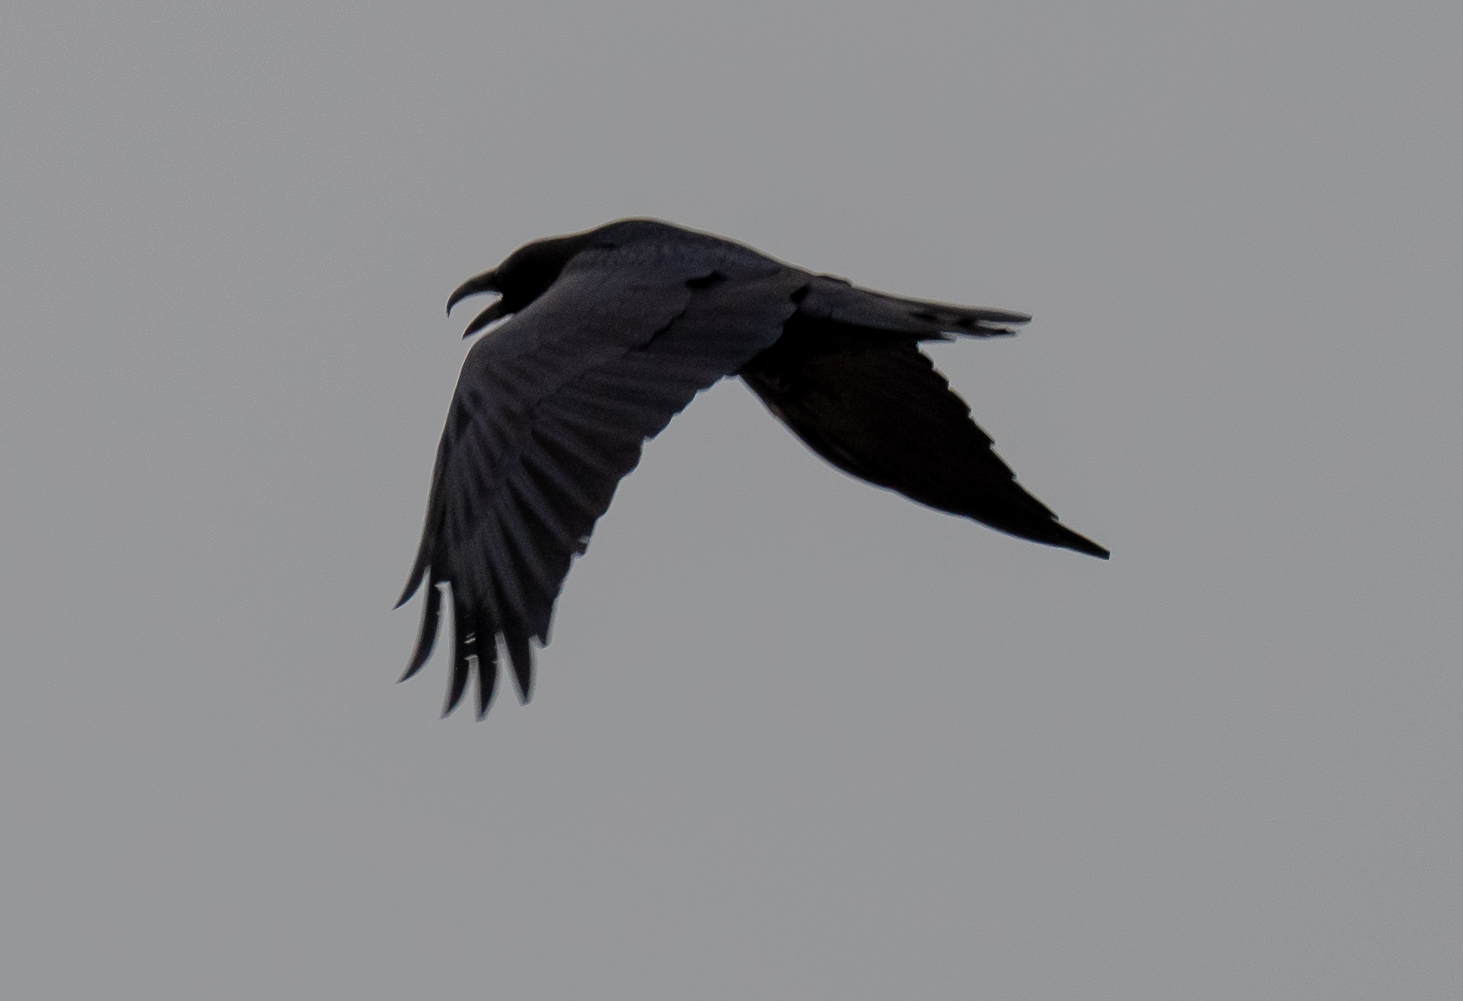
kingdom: Animalia
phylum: Chordata
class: Aves
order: Passeriformes
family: Corvidae
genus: Corvus
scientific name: Corvus corax
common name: Common raven
